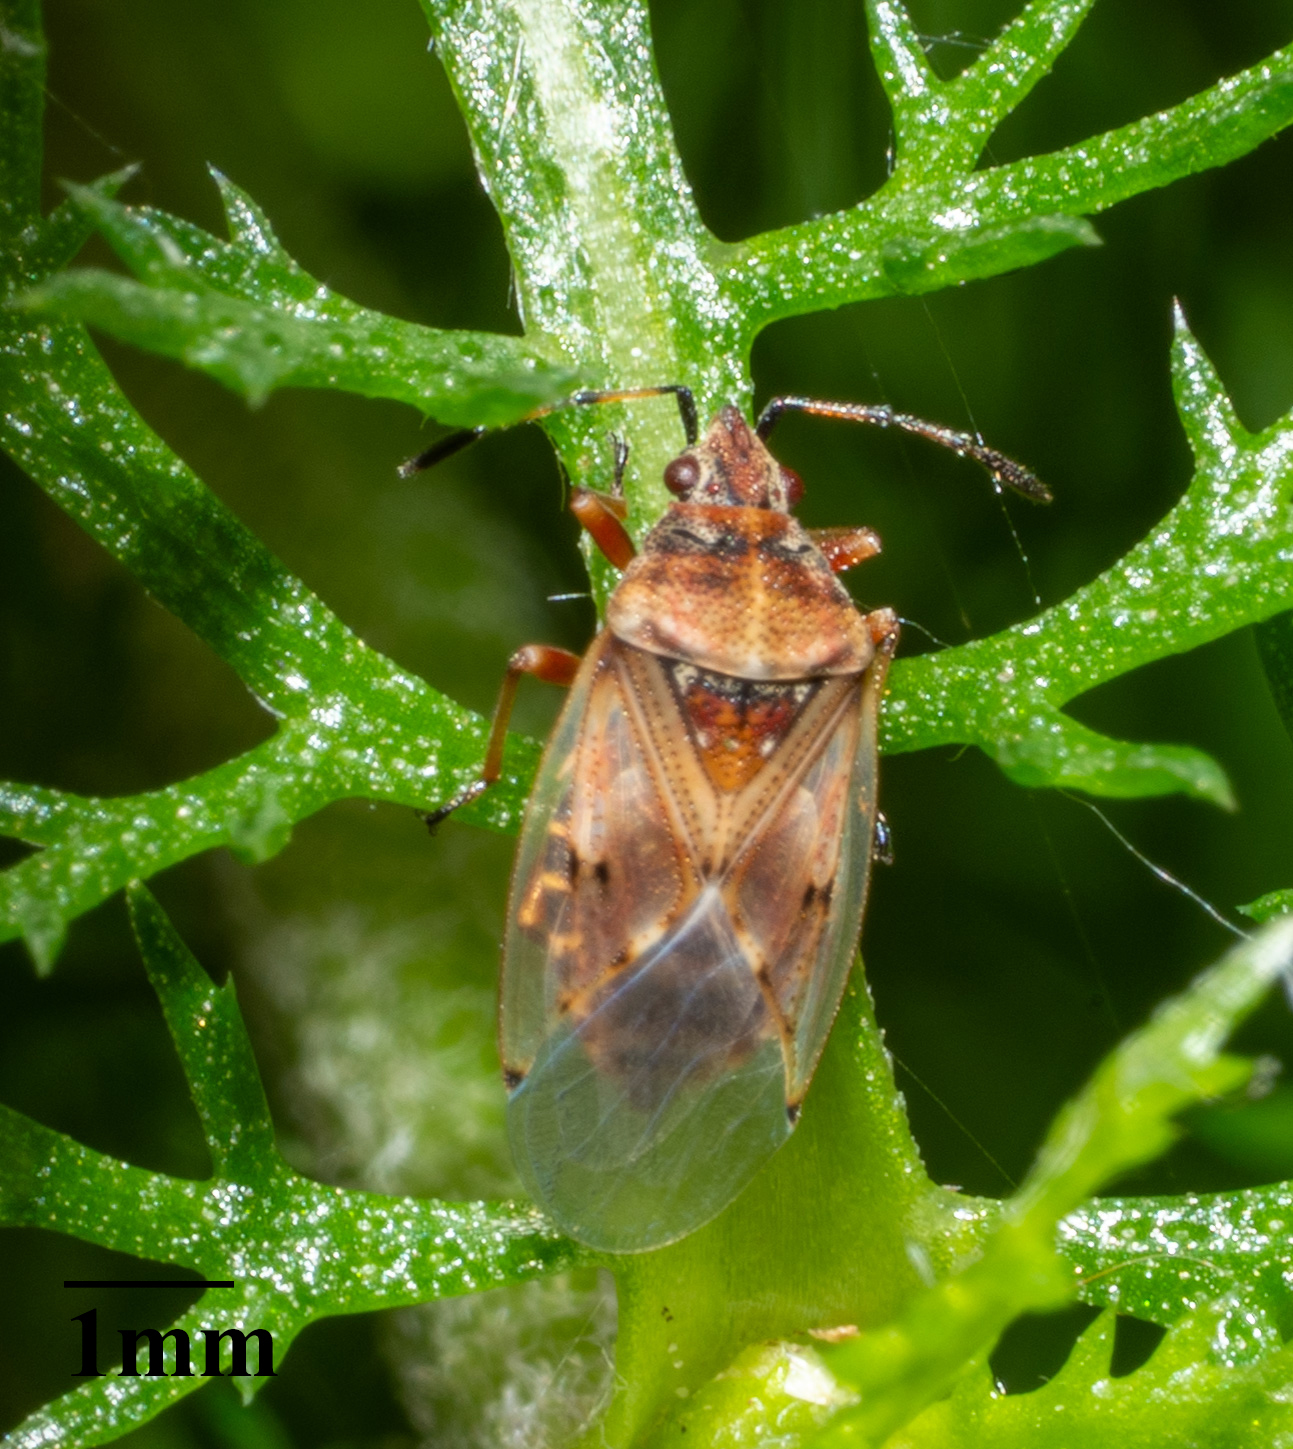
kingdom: Animalia
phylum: Arthropoda
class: Insecta
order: Hemiptera
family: Lygaeidae
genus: Kleidocerys
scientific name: Kleidocerys resedae
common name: Birch catkin bug
